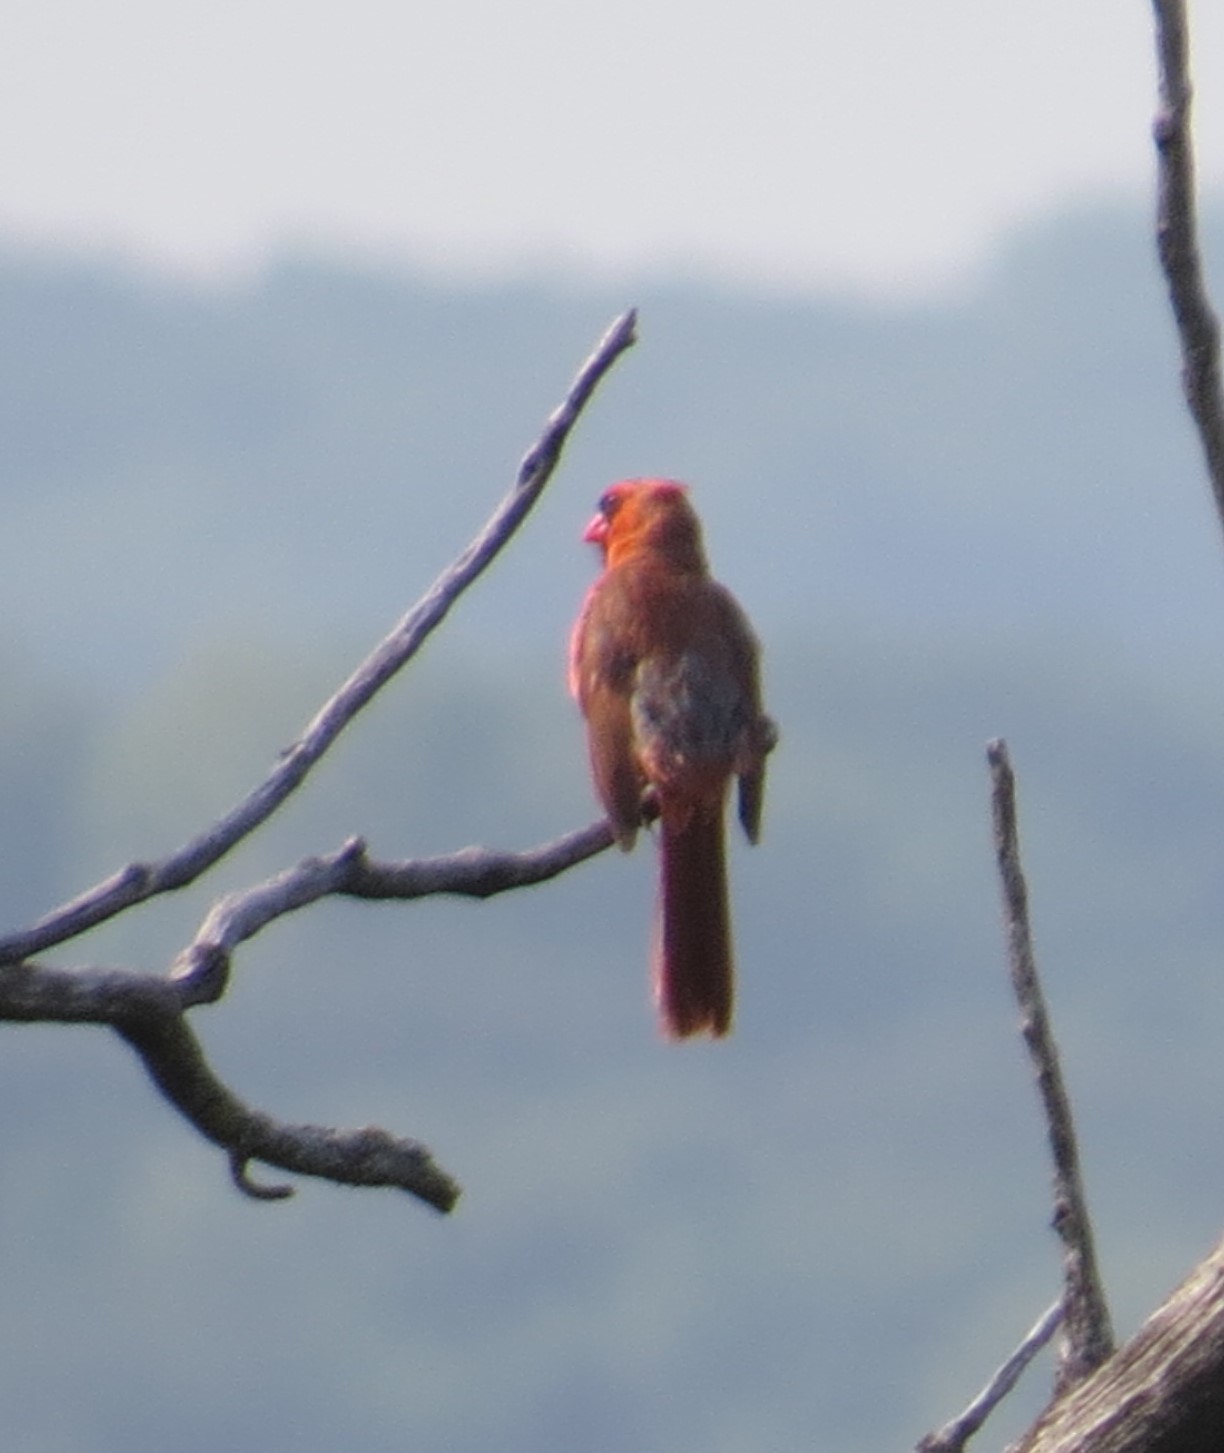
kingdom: Animalia
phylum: Chordata
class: Aves
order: Passeriformes
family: Cardinalidae
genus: Cardinalis
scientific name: Cardinalis cardinalis
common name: Northern cardinal
